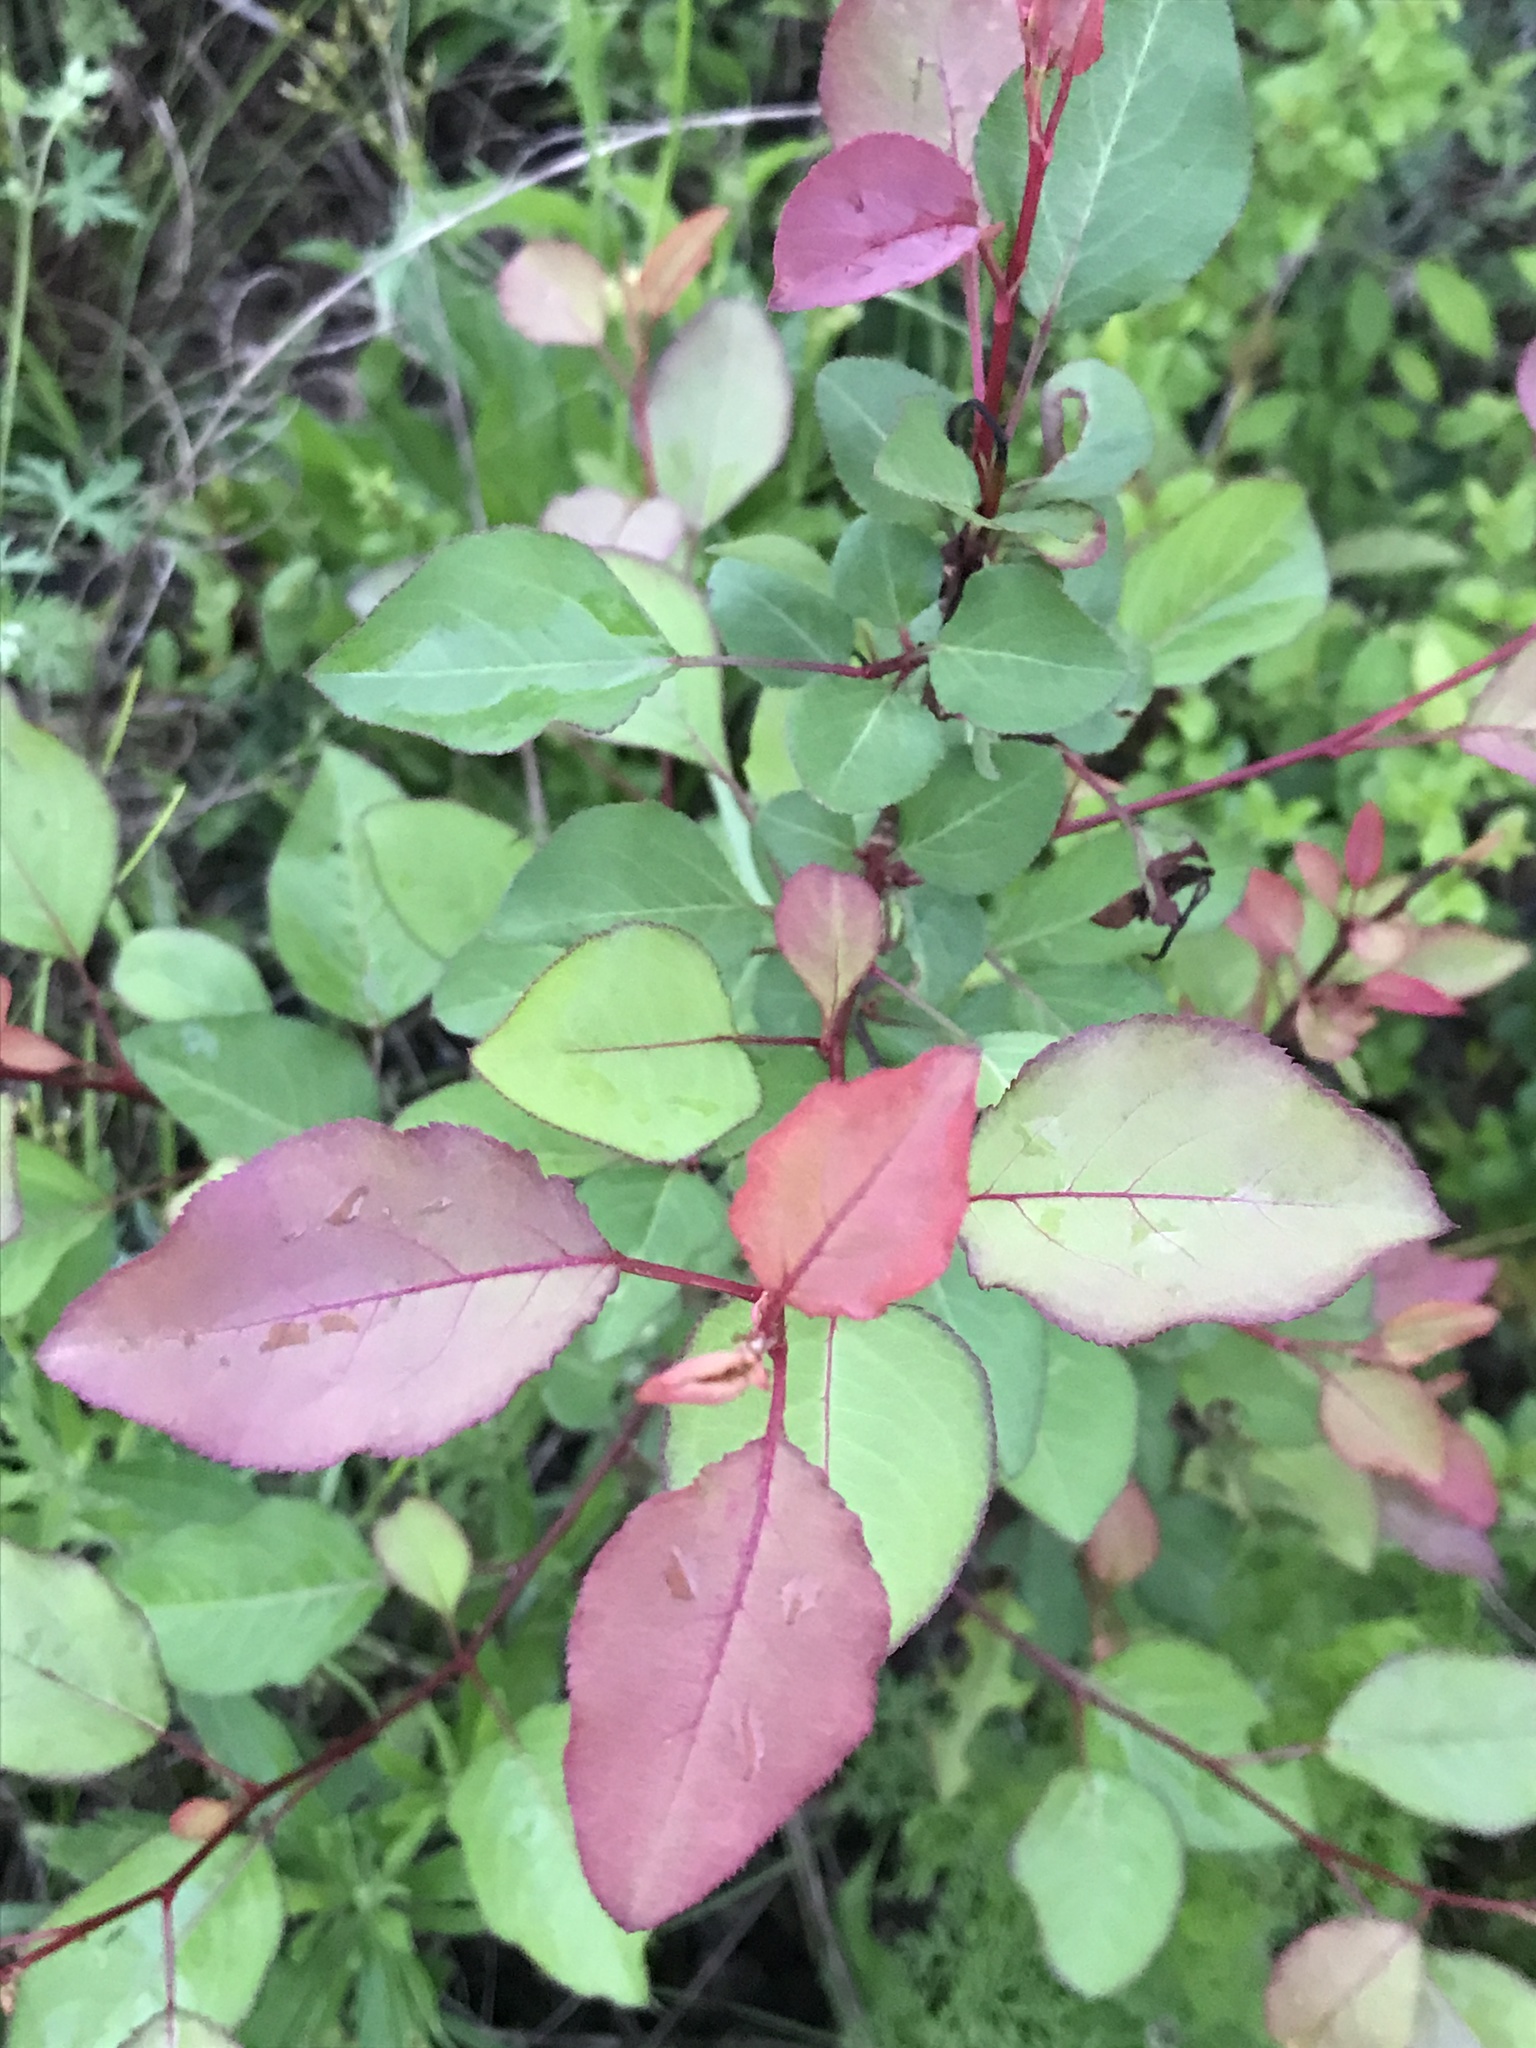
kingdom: Plantae
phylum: Tracheophyta
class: Magnoliopsida
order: Rosales
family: Rosaceae
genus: Pyrus
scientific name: Pyrus calleryana
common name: Callery pear
